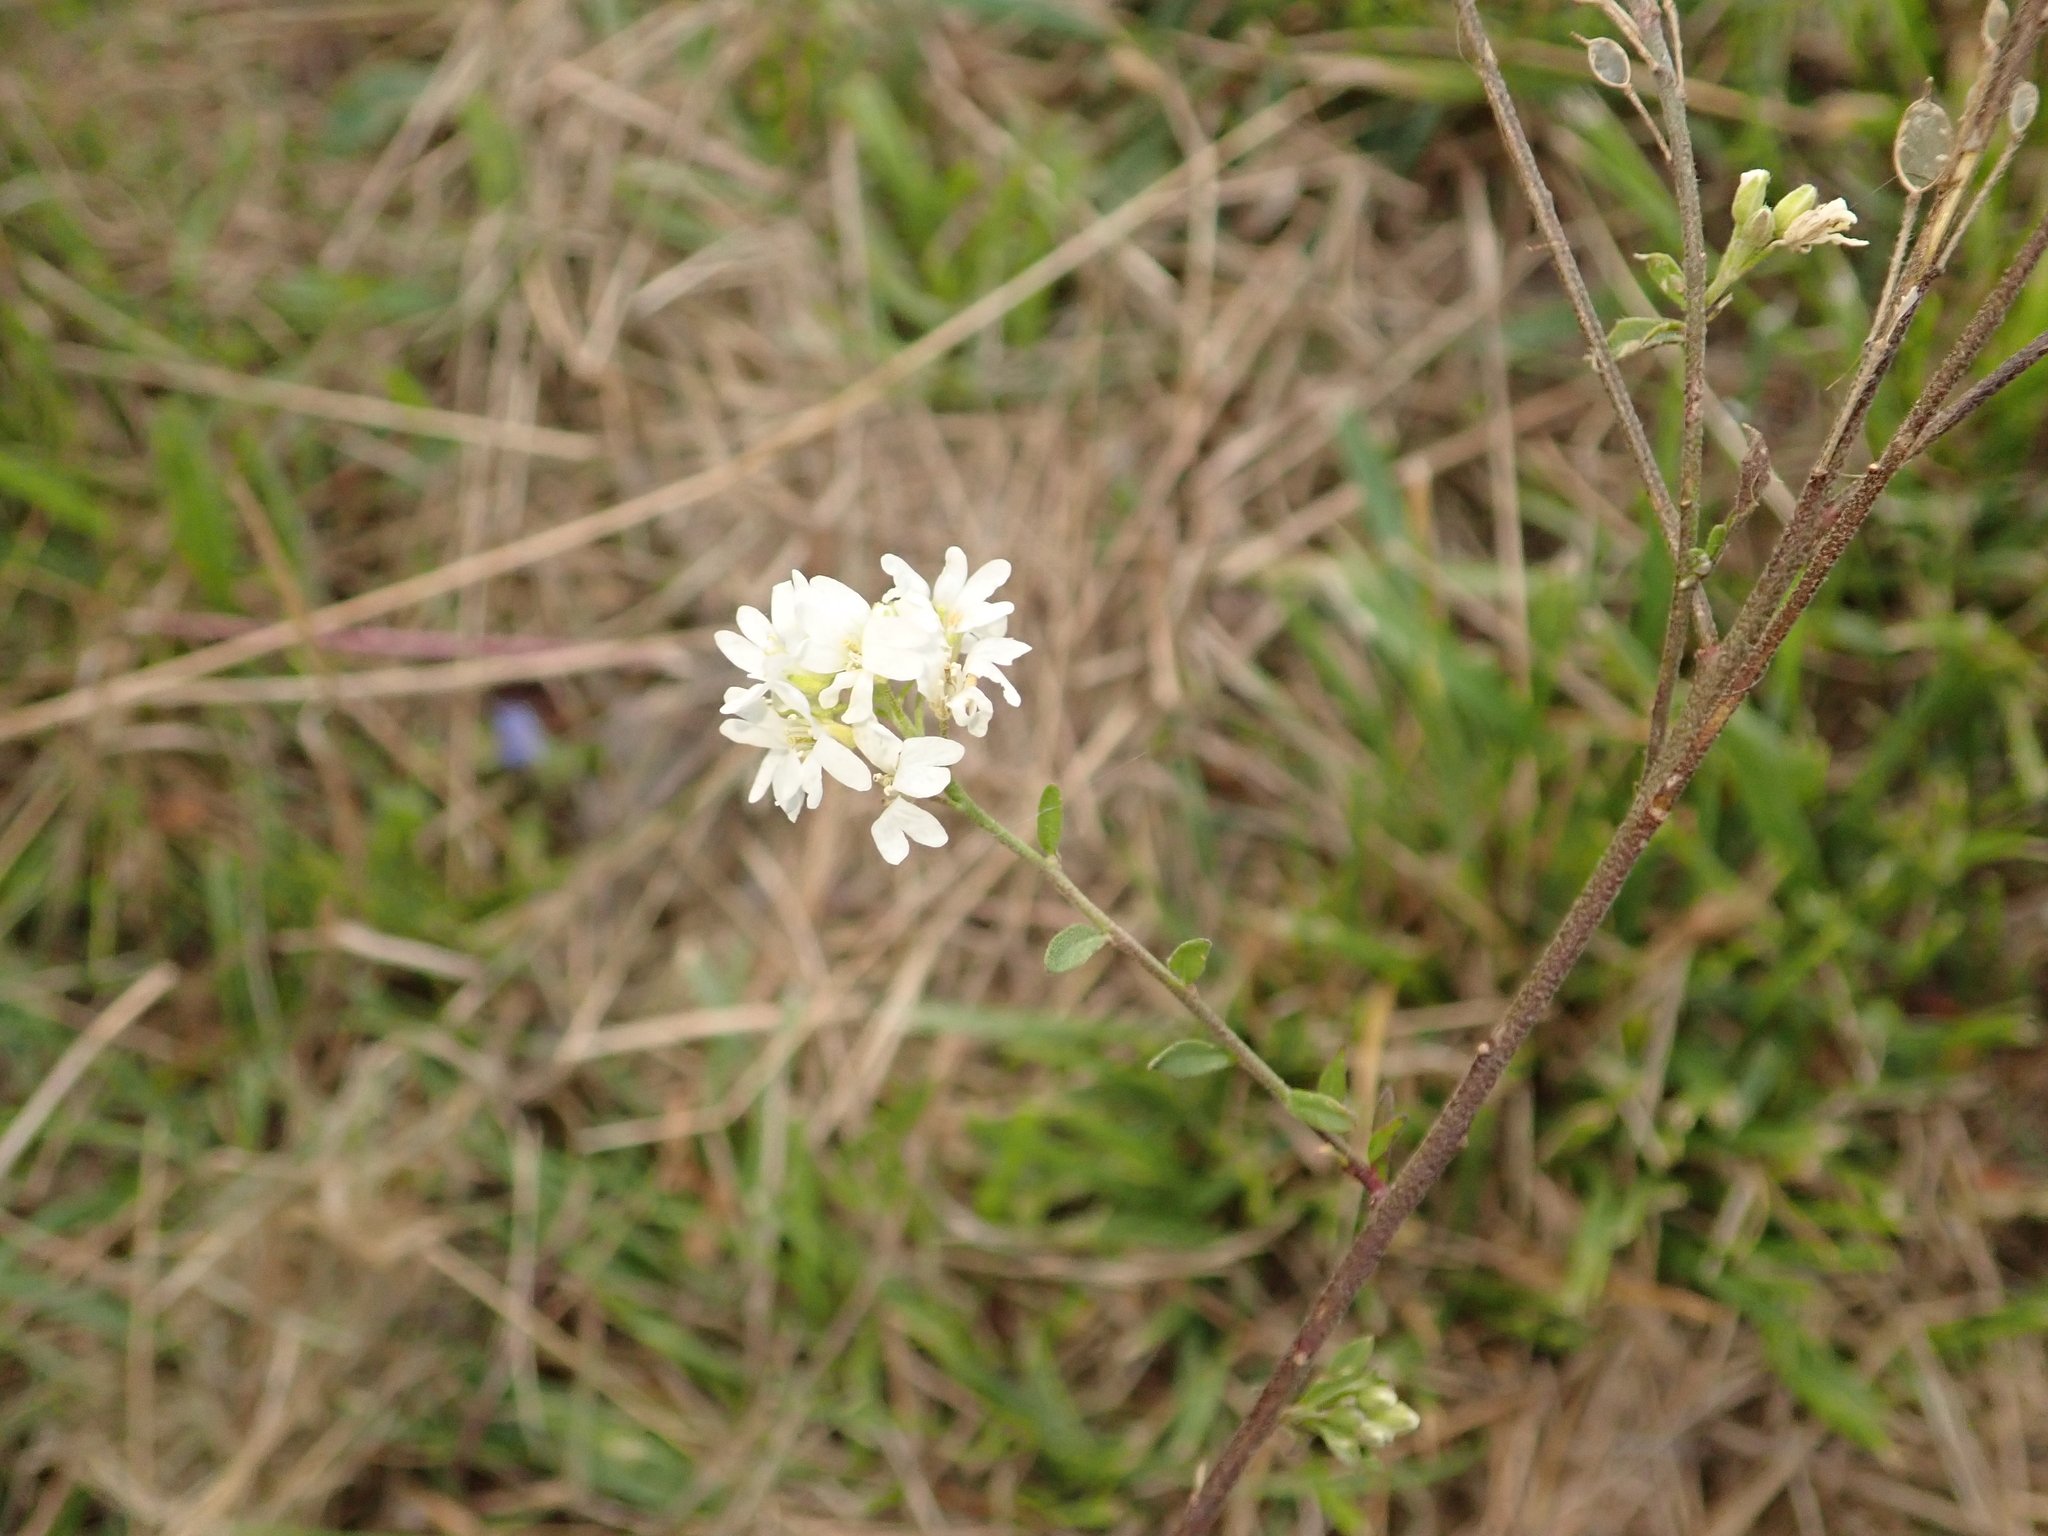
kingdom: Plantae
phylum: Tracheophyta
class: Magnoliopsida
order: Brassicales
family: Brassicaceae
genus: Berteroa
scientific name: Berteroa incana
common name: Hoary alison
